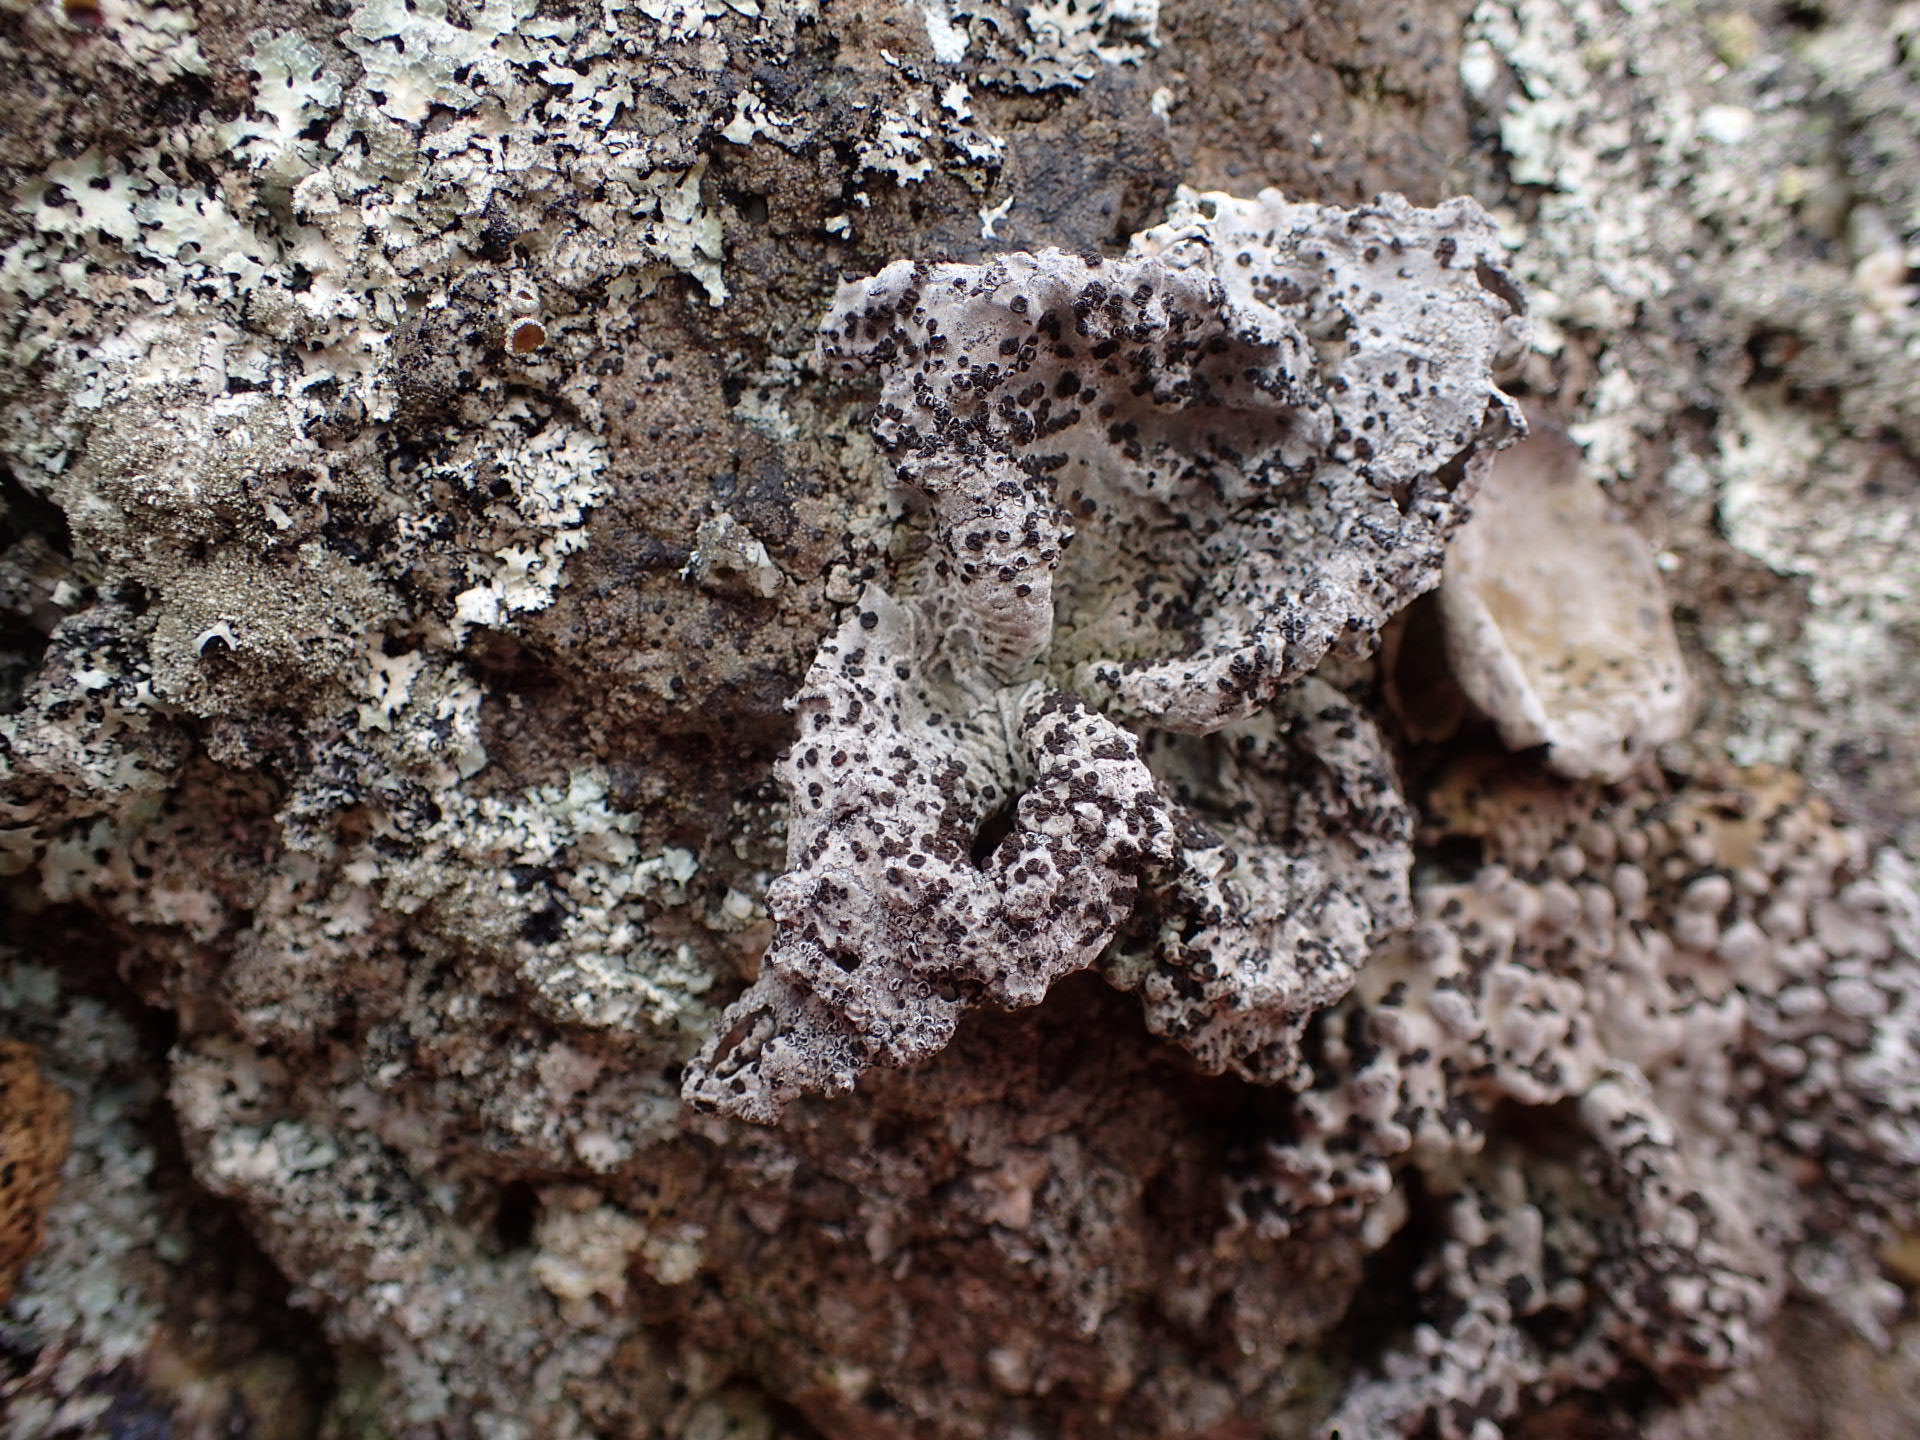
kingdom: Fungi
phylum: Ascomycota
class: Lecanoromycetes
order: Umbilicariales
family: Umbilicariaceae
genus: Lasallia
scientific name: Lasallia papulosa
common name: Common toadskin lichen
